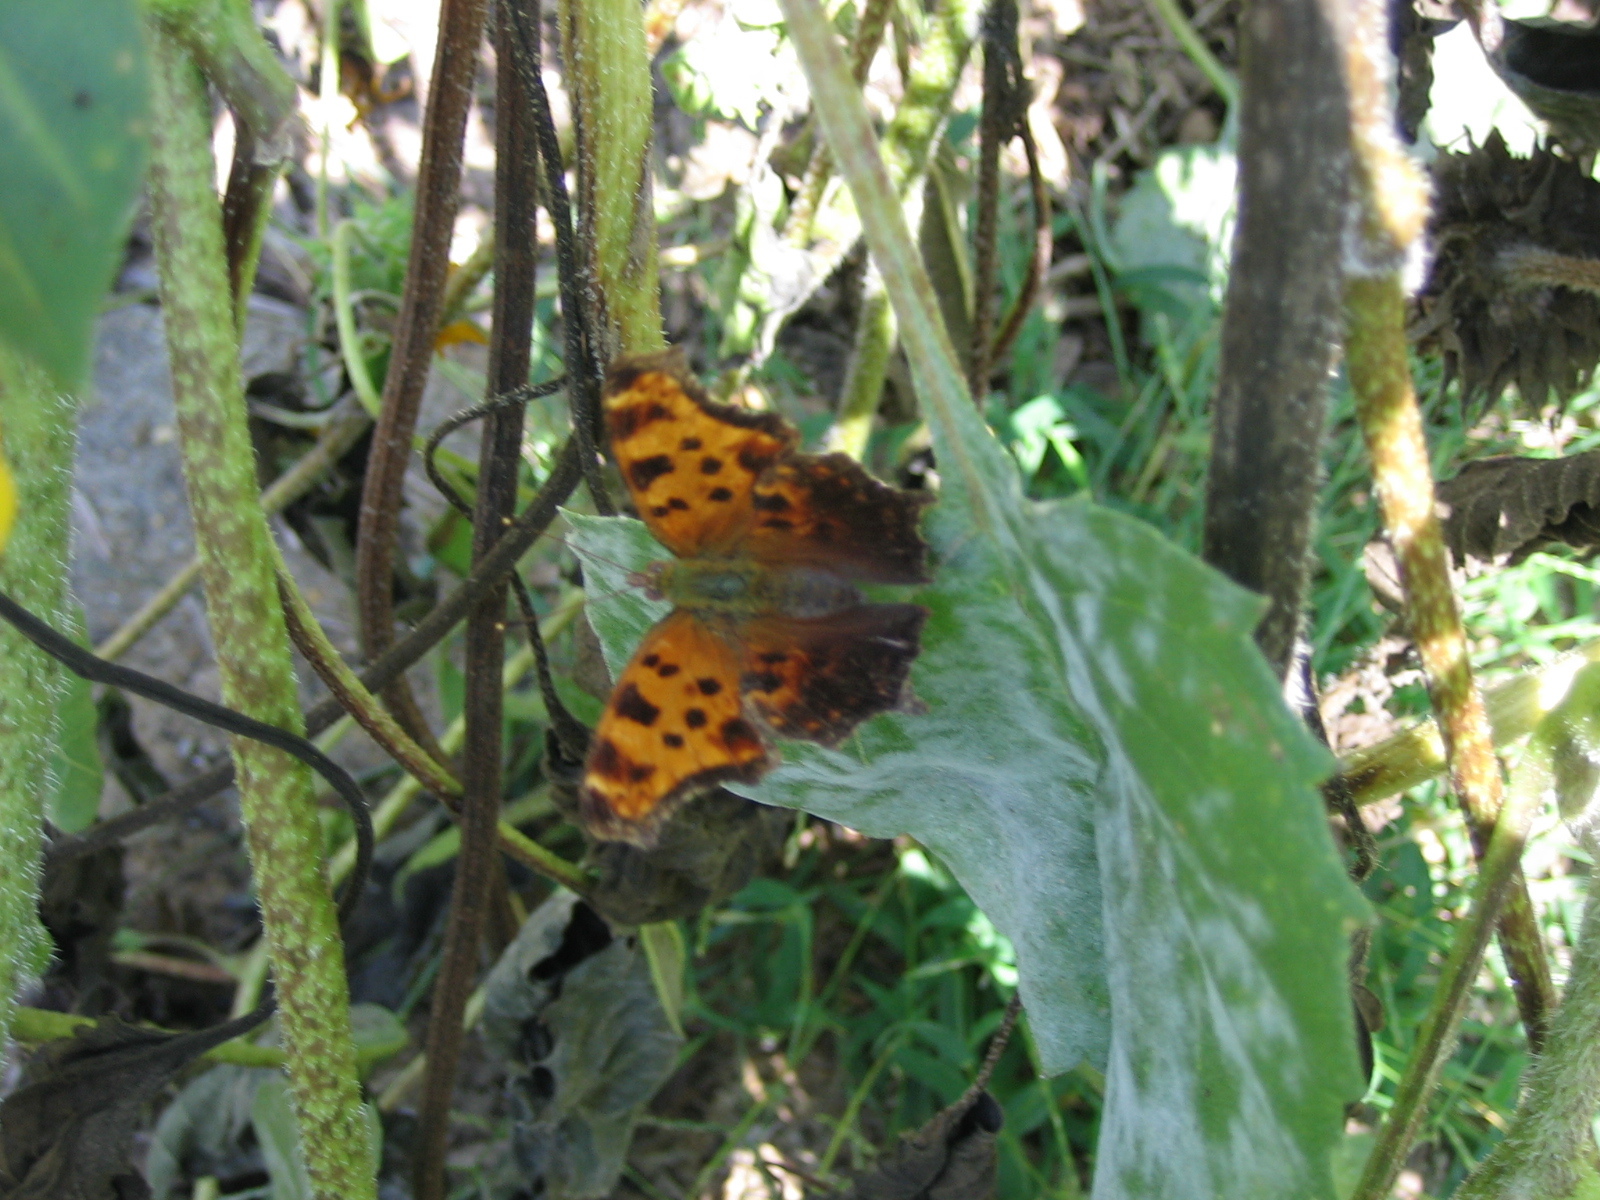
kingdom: Animalia
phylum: Arthropoda
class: Insecta
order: Lepidoptera
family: Nymphalidae
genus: Polygonia
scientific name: Polygonia comma
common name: Eastern comma
